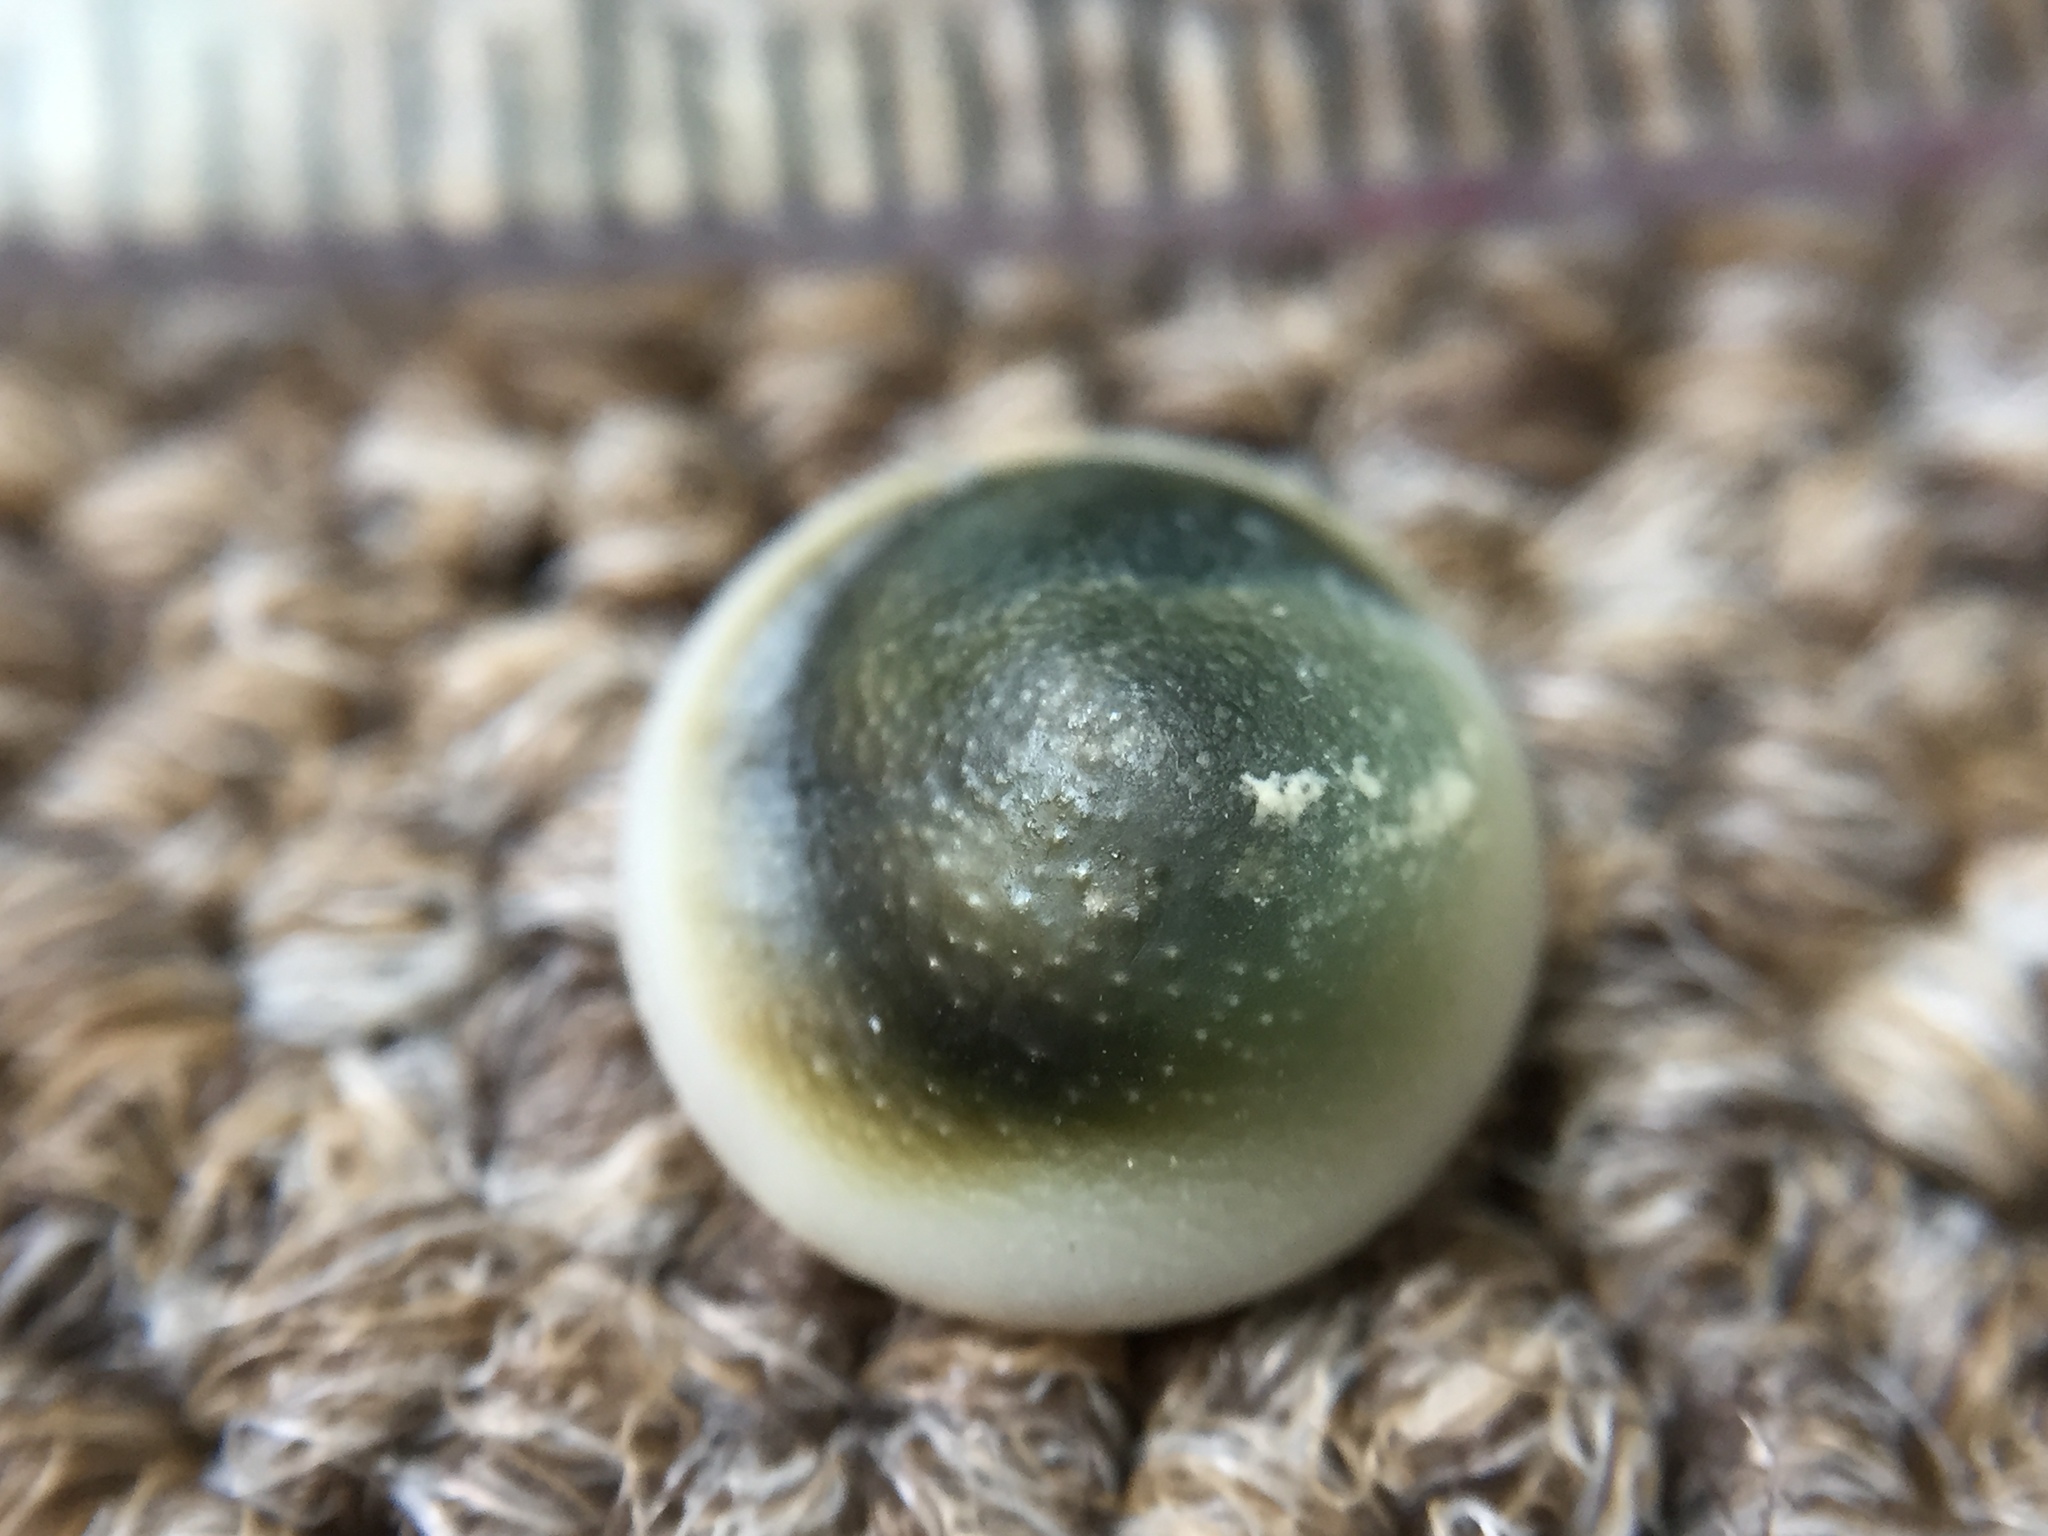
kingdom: Animalia
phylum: Mollusca
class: Gastropoda
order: Trochida
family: Turbinidae
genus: Lunella
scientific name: Lunella smaragda
